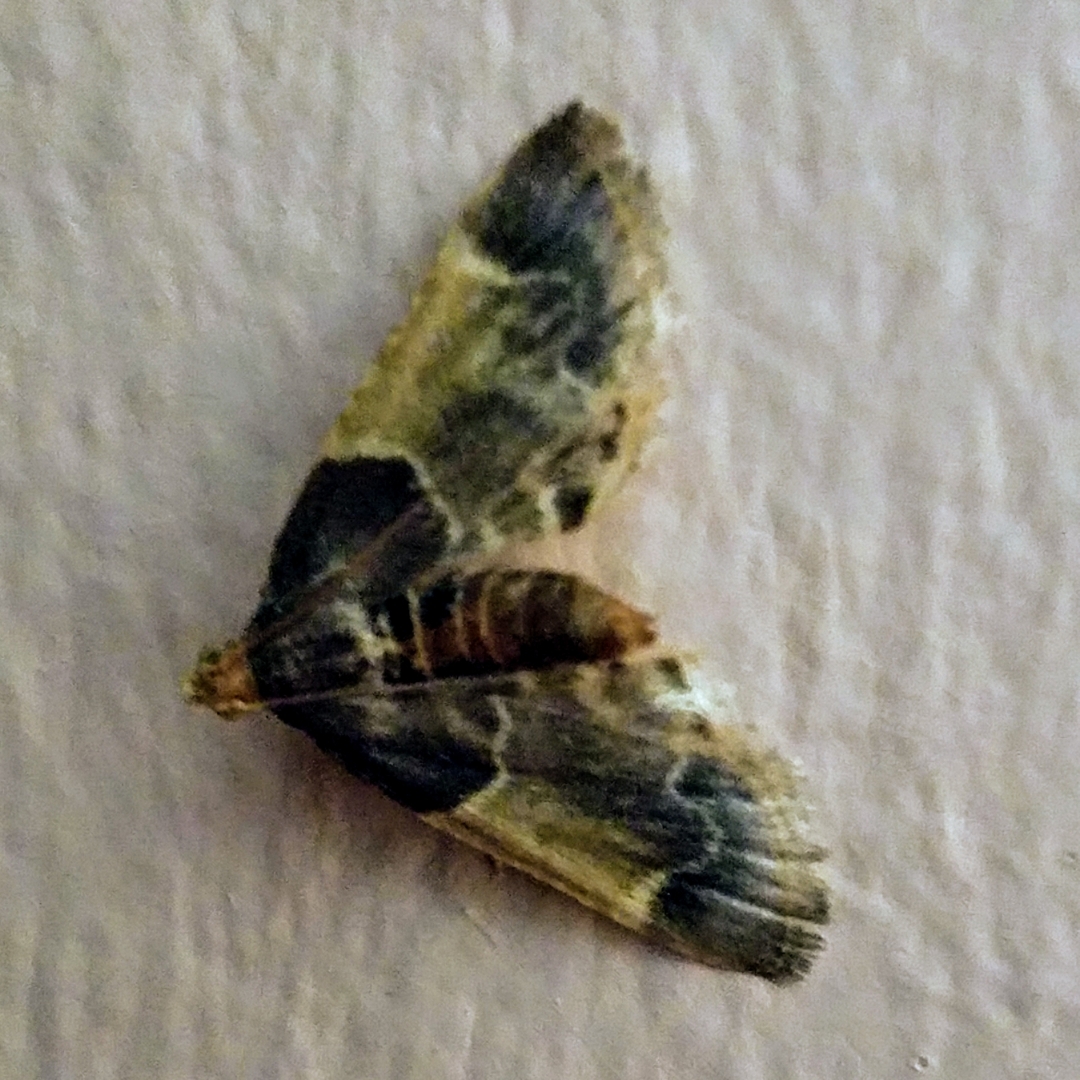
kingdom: Animalia
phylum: Arthropoda
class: Insecta
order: Lepidoptera
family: Pyralidae
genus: Pyralis
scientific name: Pyralis farinalis
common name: Meal moth
